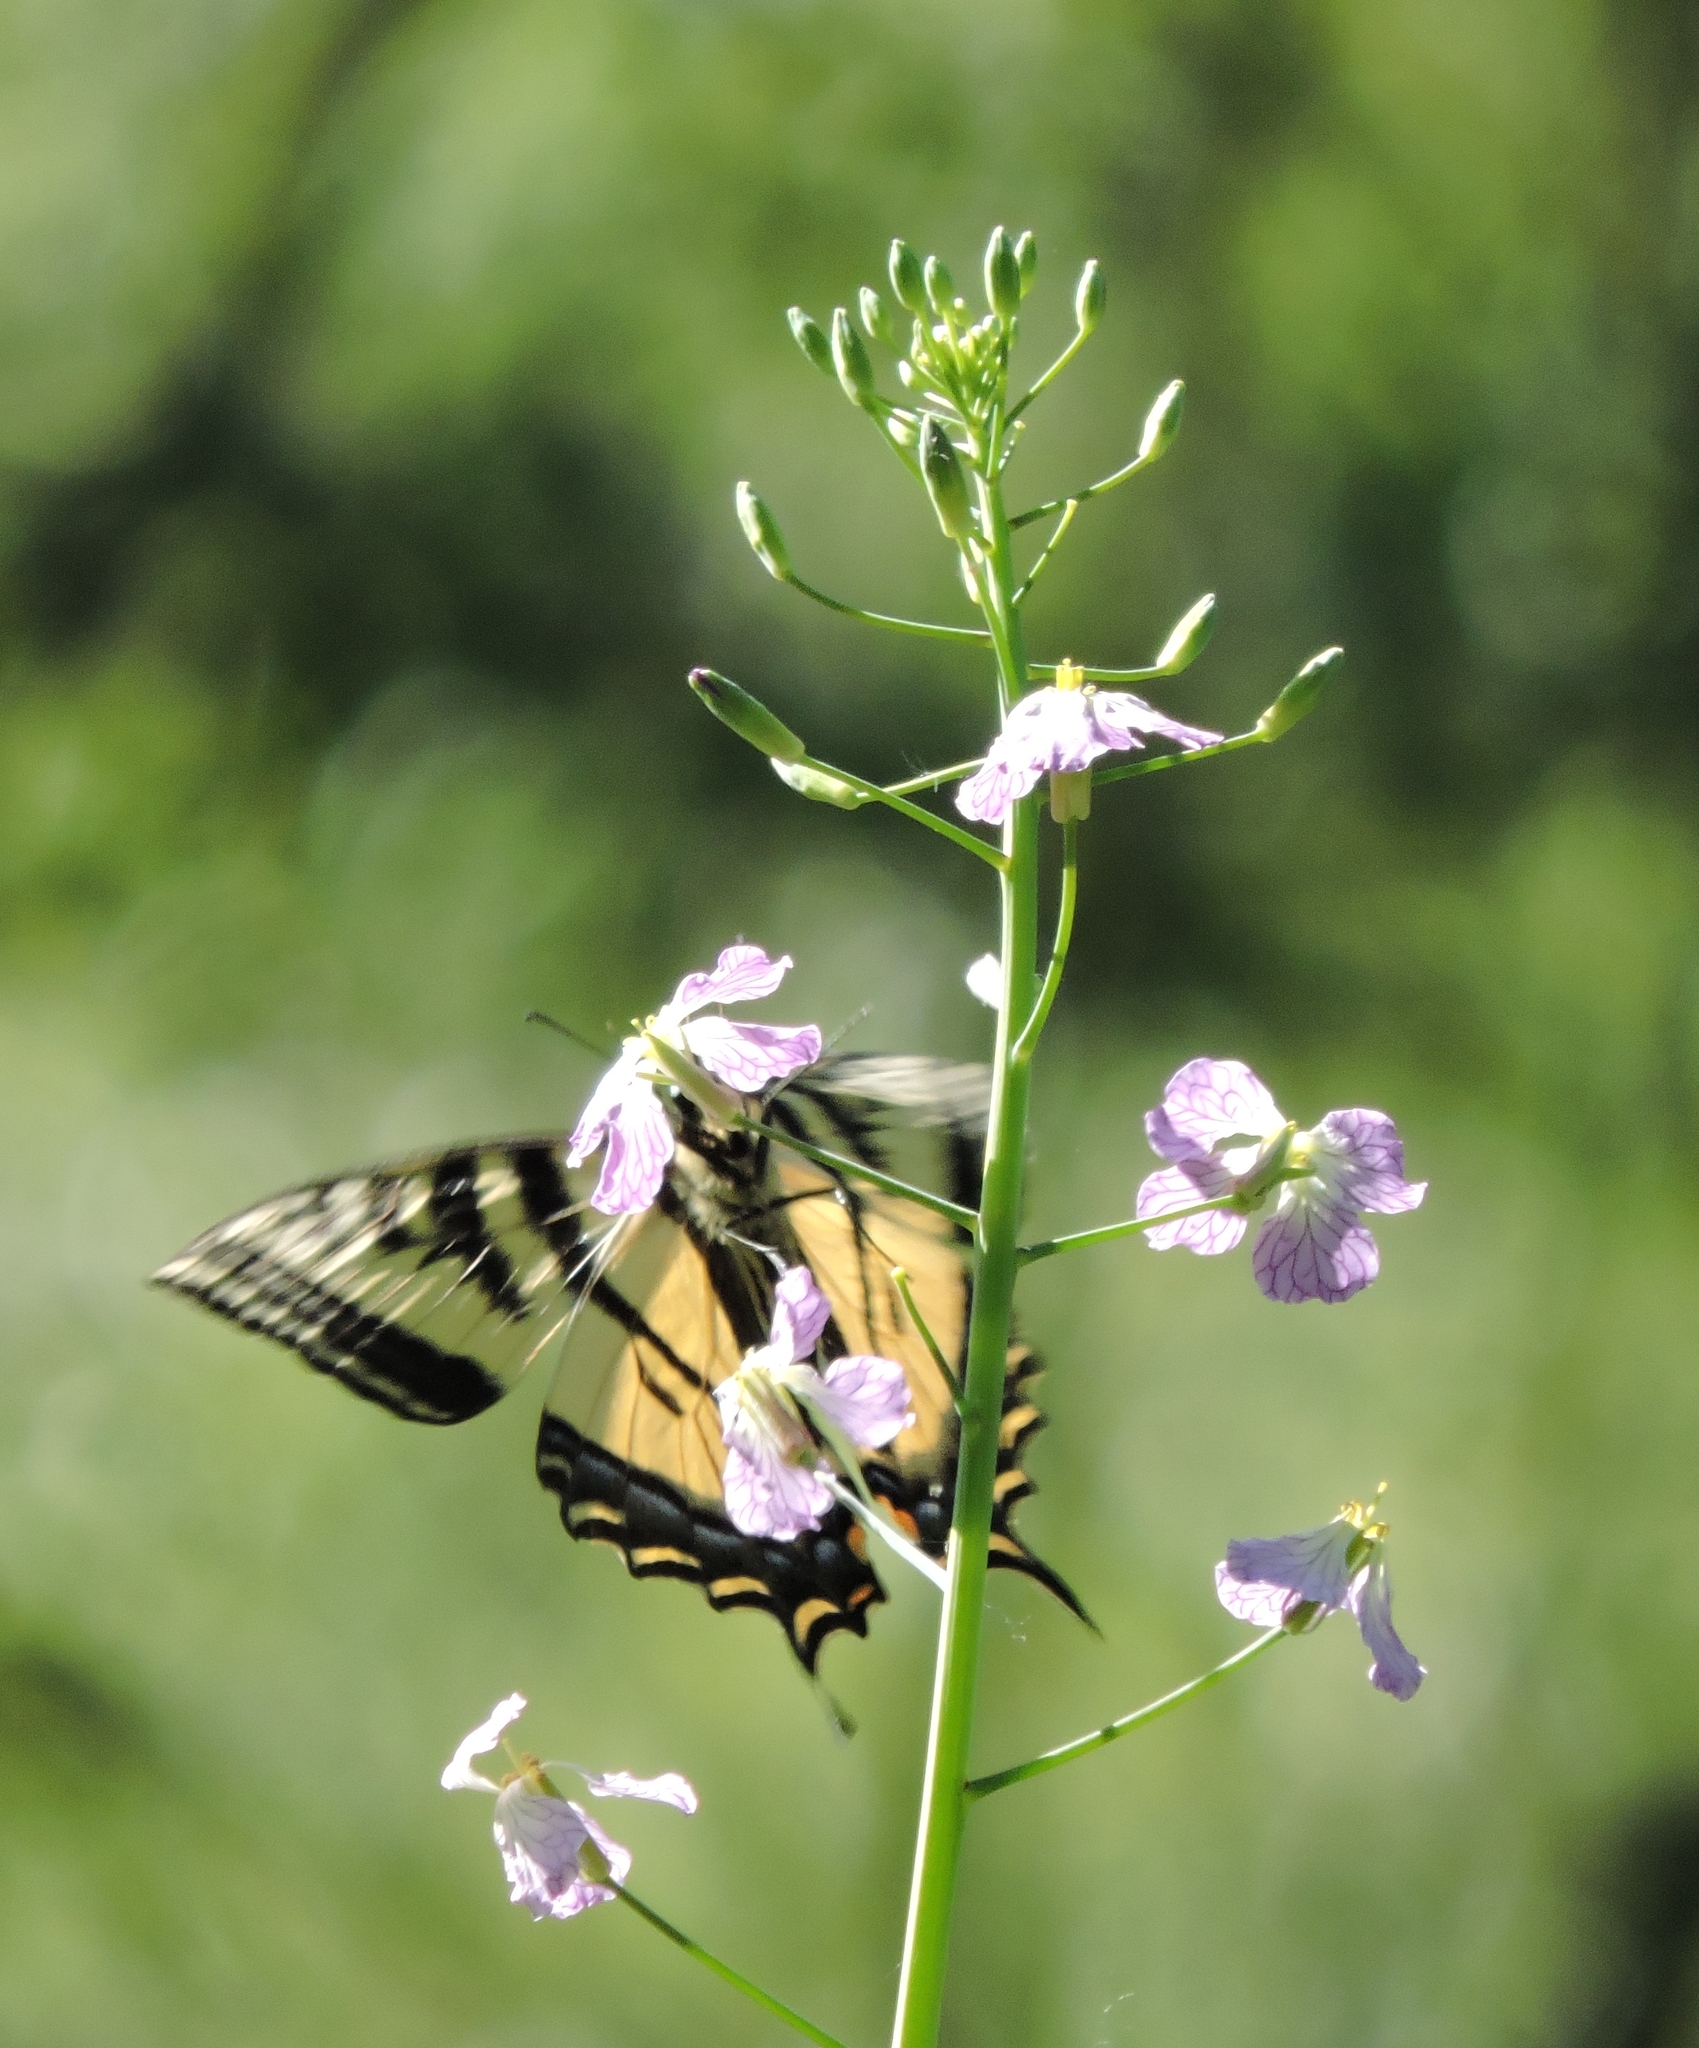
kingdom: Animalia
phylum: Arthropoda
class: Insecta
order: Lepidoptera
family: Papilionidae
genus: Papilio
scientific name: Papilio rutulus
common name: Western tiger swallowtail
